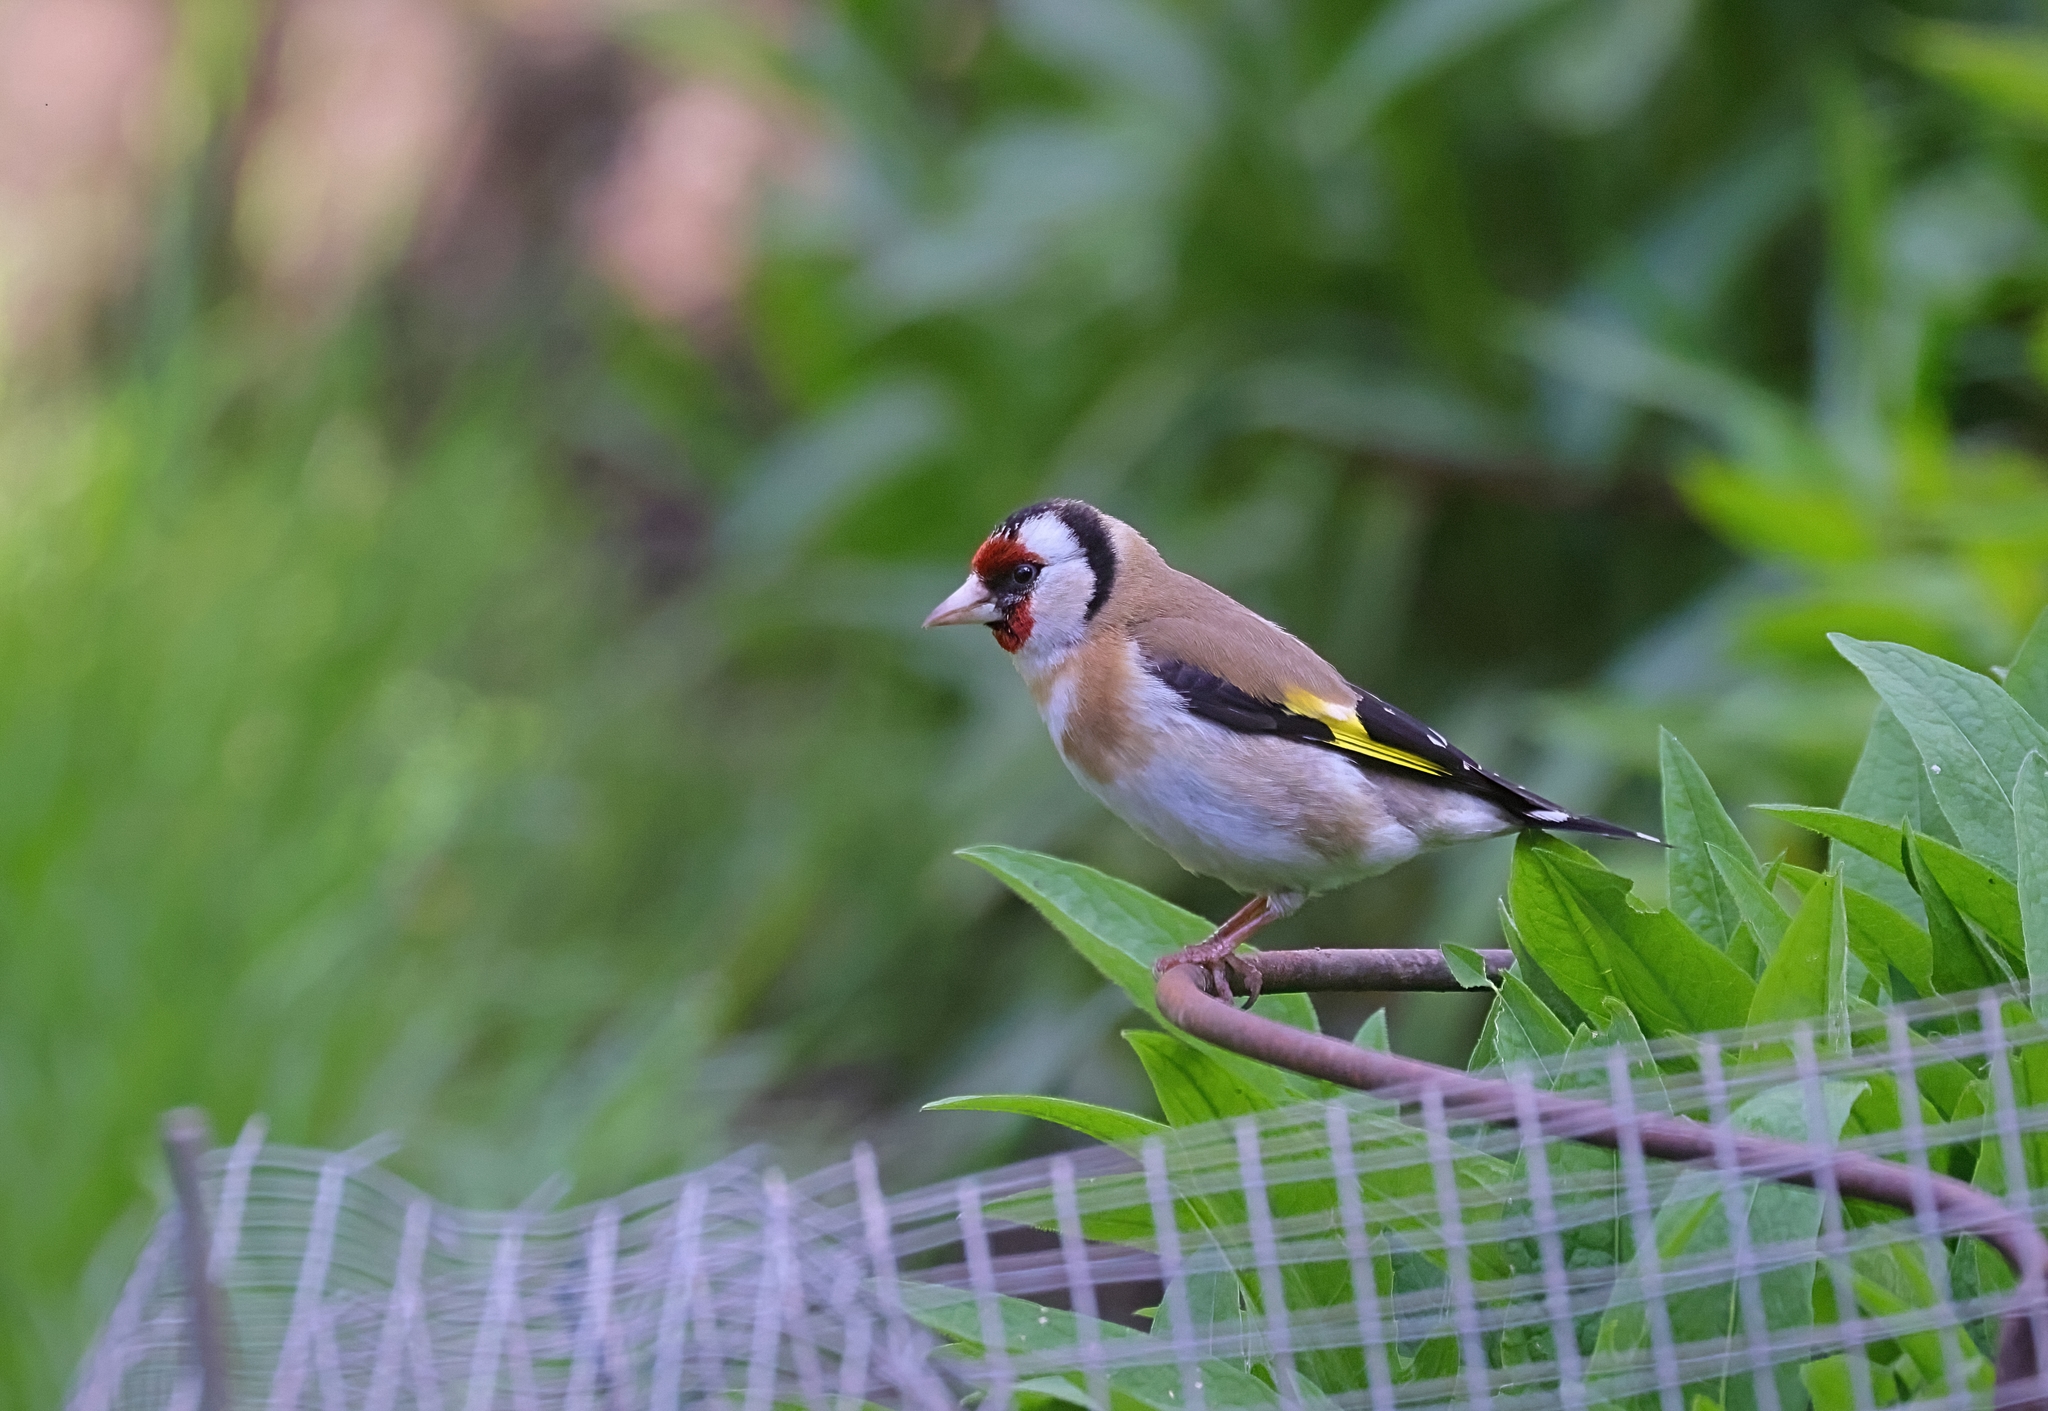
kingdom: Animalia
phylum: Chordata
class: Aves
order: Passeriformes
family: Fringillidae
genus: Carduelis
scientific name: Carduelis carduelis
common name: European goldfinch
